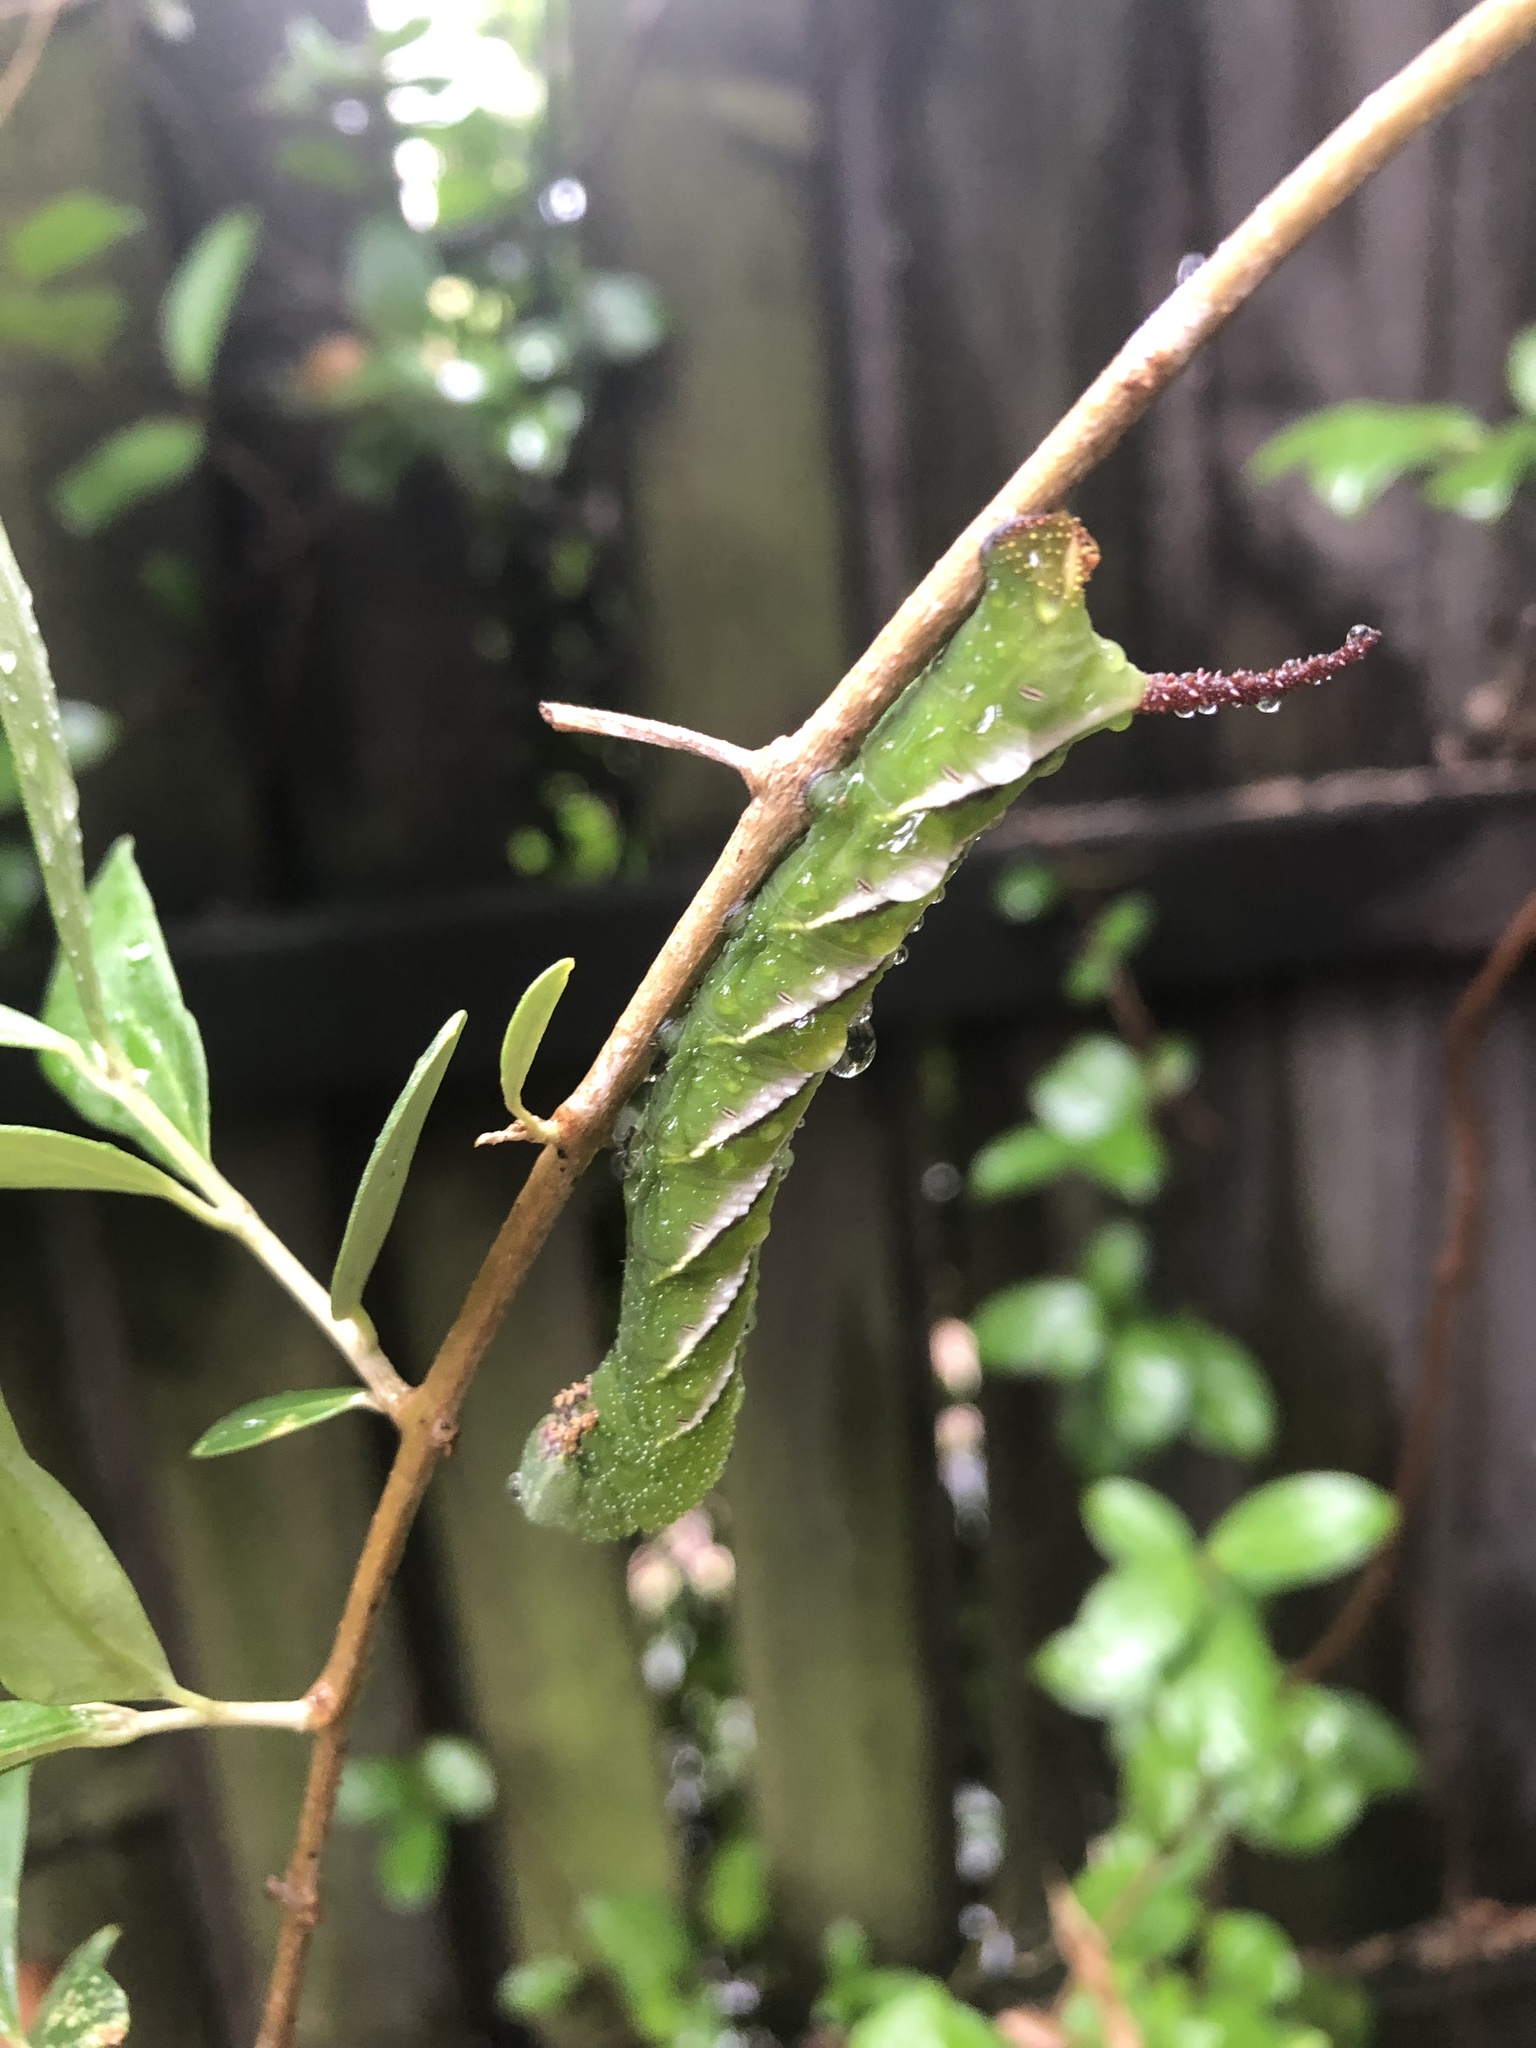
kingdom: Animalia
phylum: Arthropoda
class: Insecta
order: Lepidoptera
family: Sphingidae
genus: Psilogramma
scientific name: Psilogramma menephron
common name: Gray hawk moth
